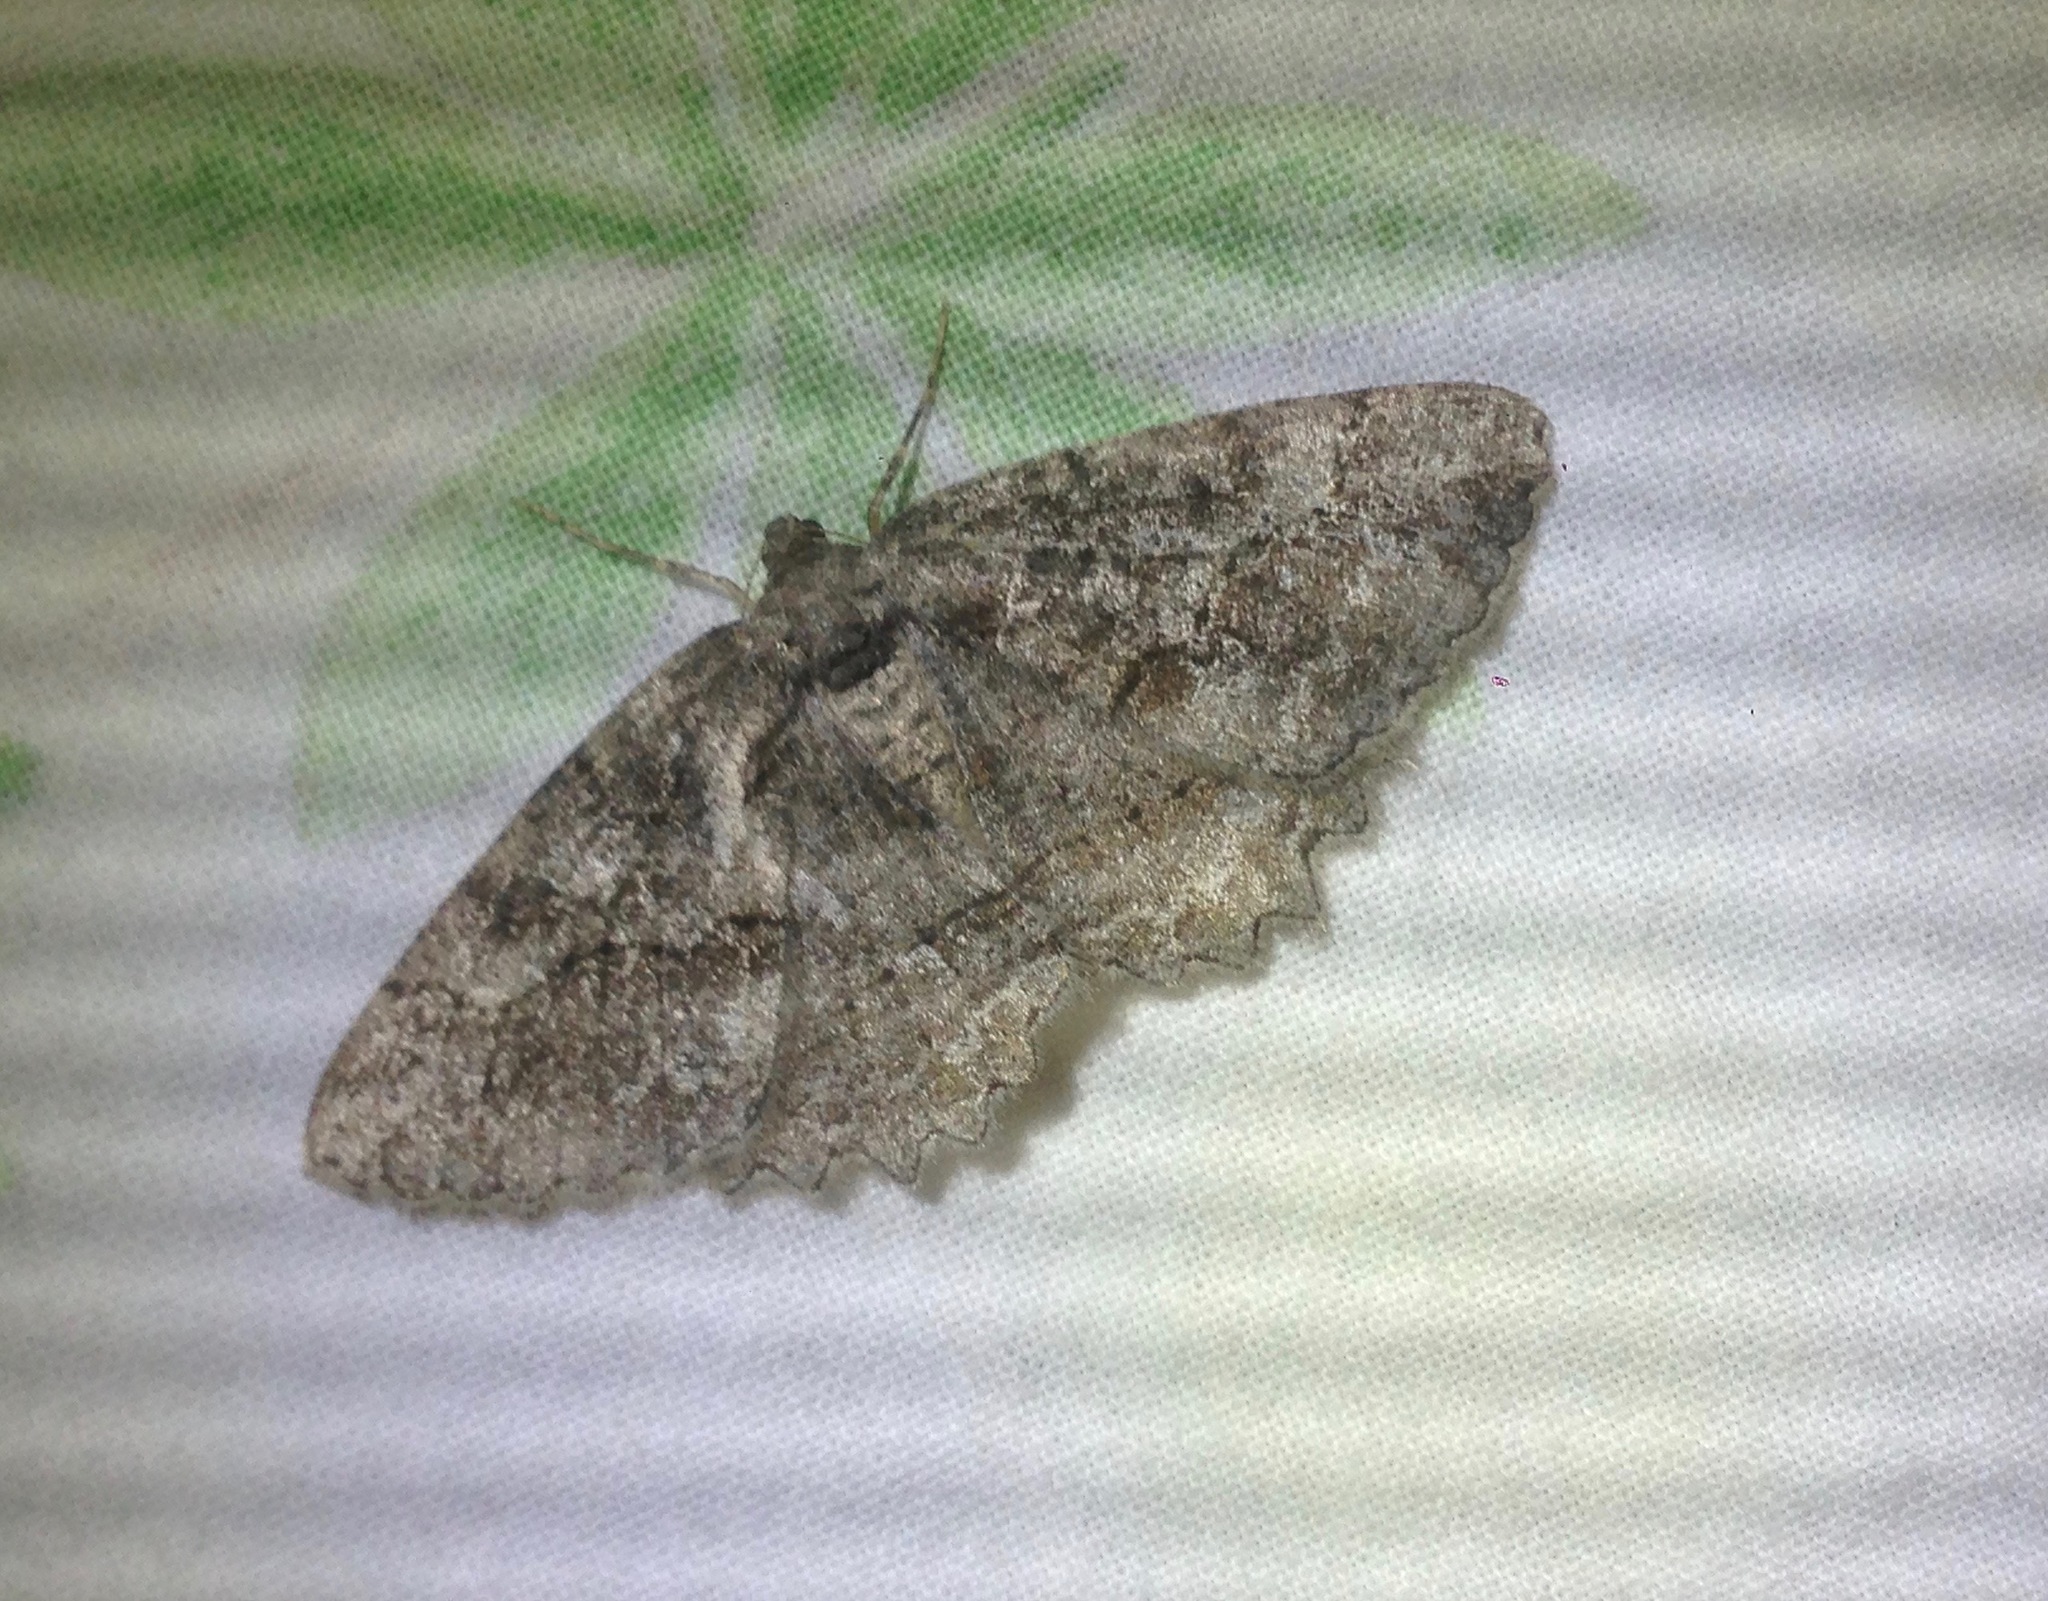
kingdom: Animalia
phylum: Arthropoda
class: Insecta
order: Lepidoptera
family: Geometridae
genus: Neoalcis
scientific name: Neoalcis californiaria
